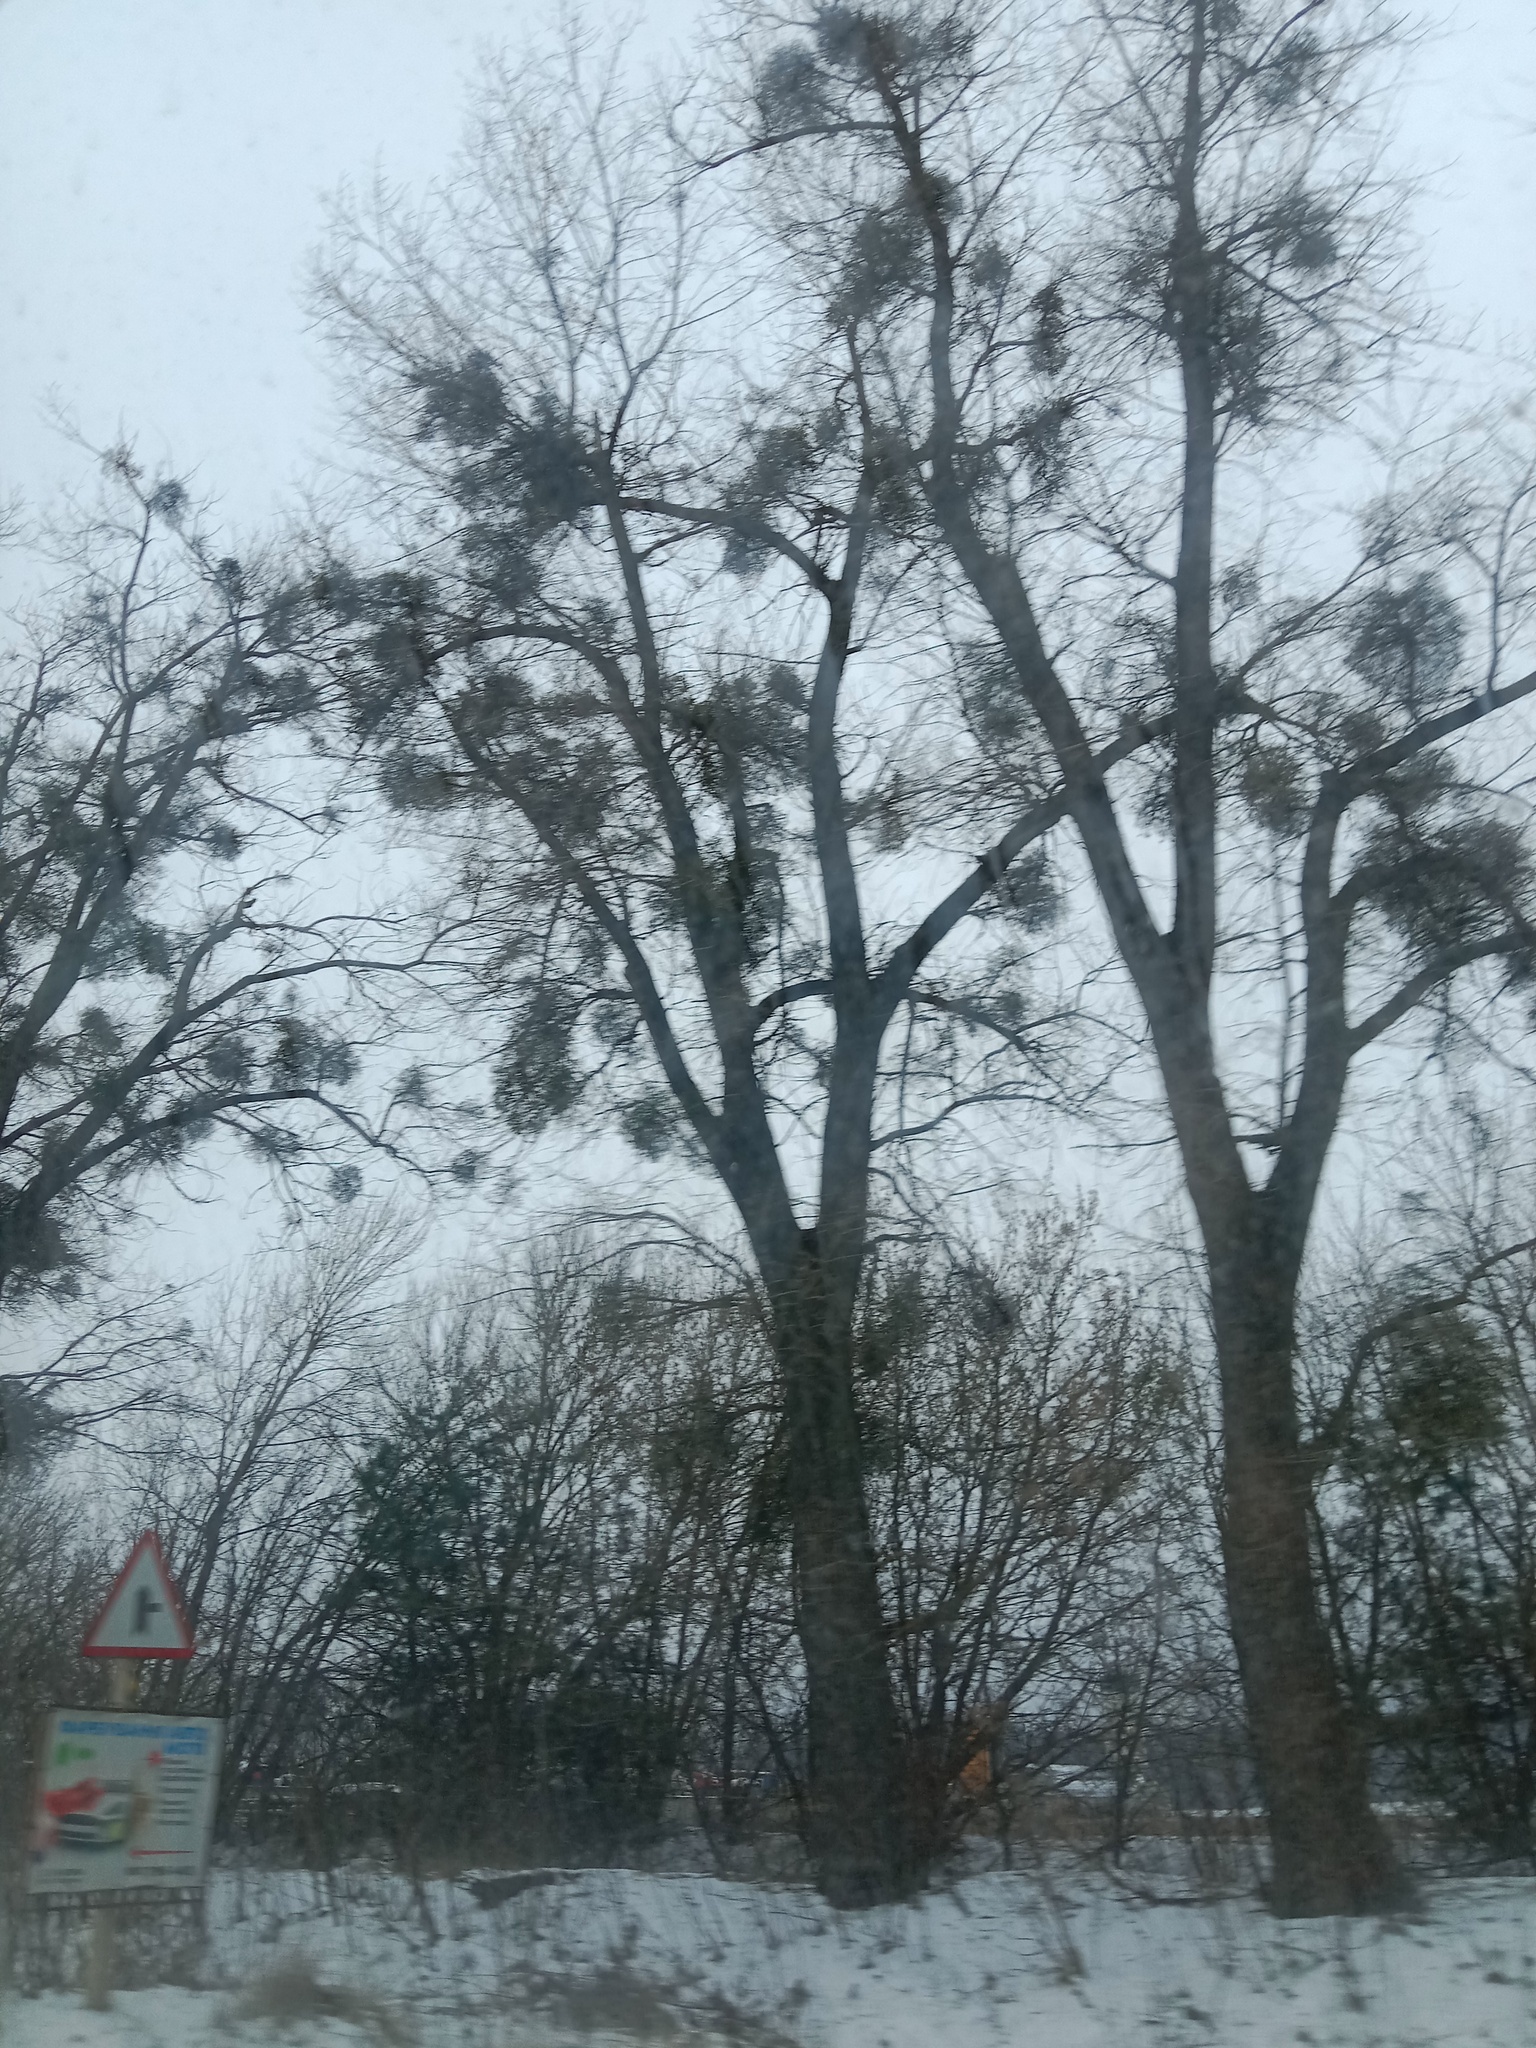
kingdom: Plantae
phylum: Tracheophyta
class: Magnoliopsida
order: Santalales
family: Viscaceae
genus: Viscum
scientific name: Viscum album
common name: Mistletoe
